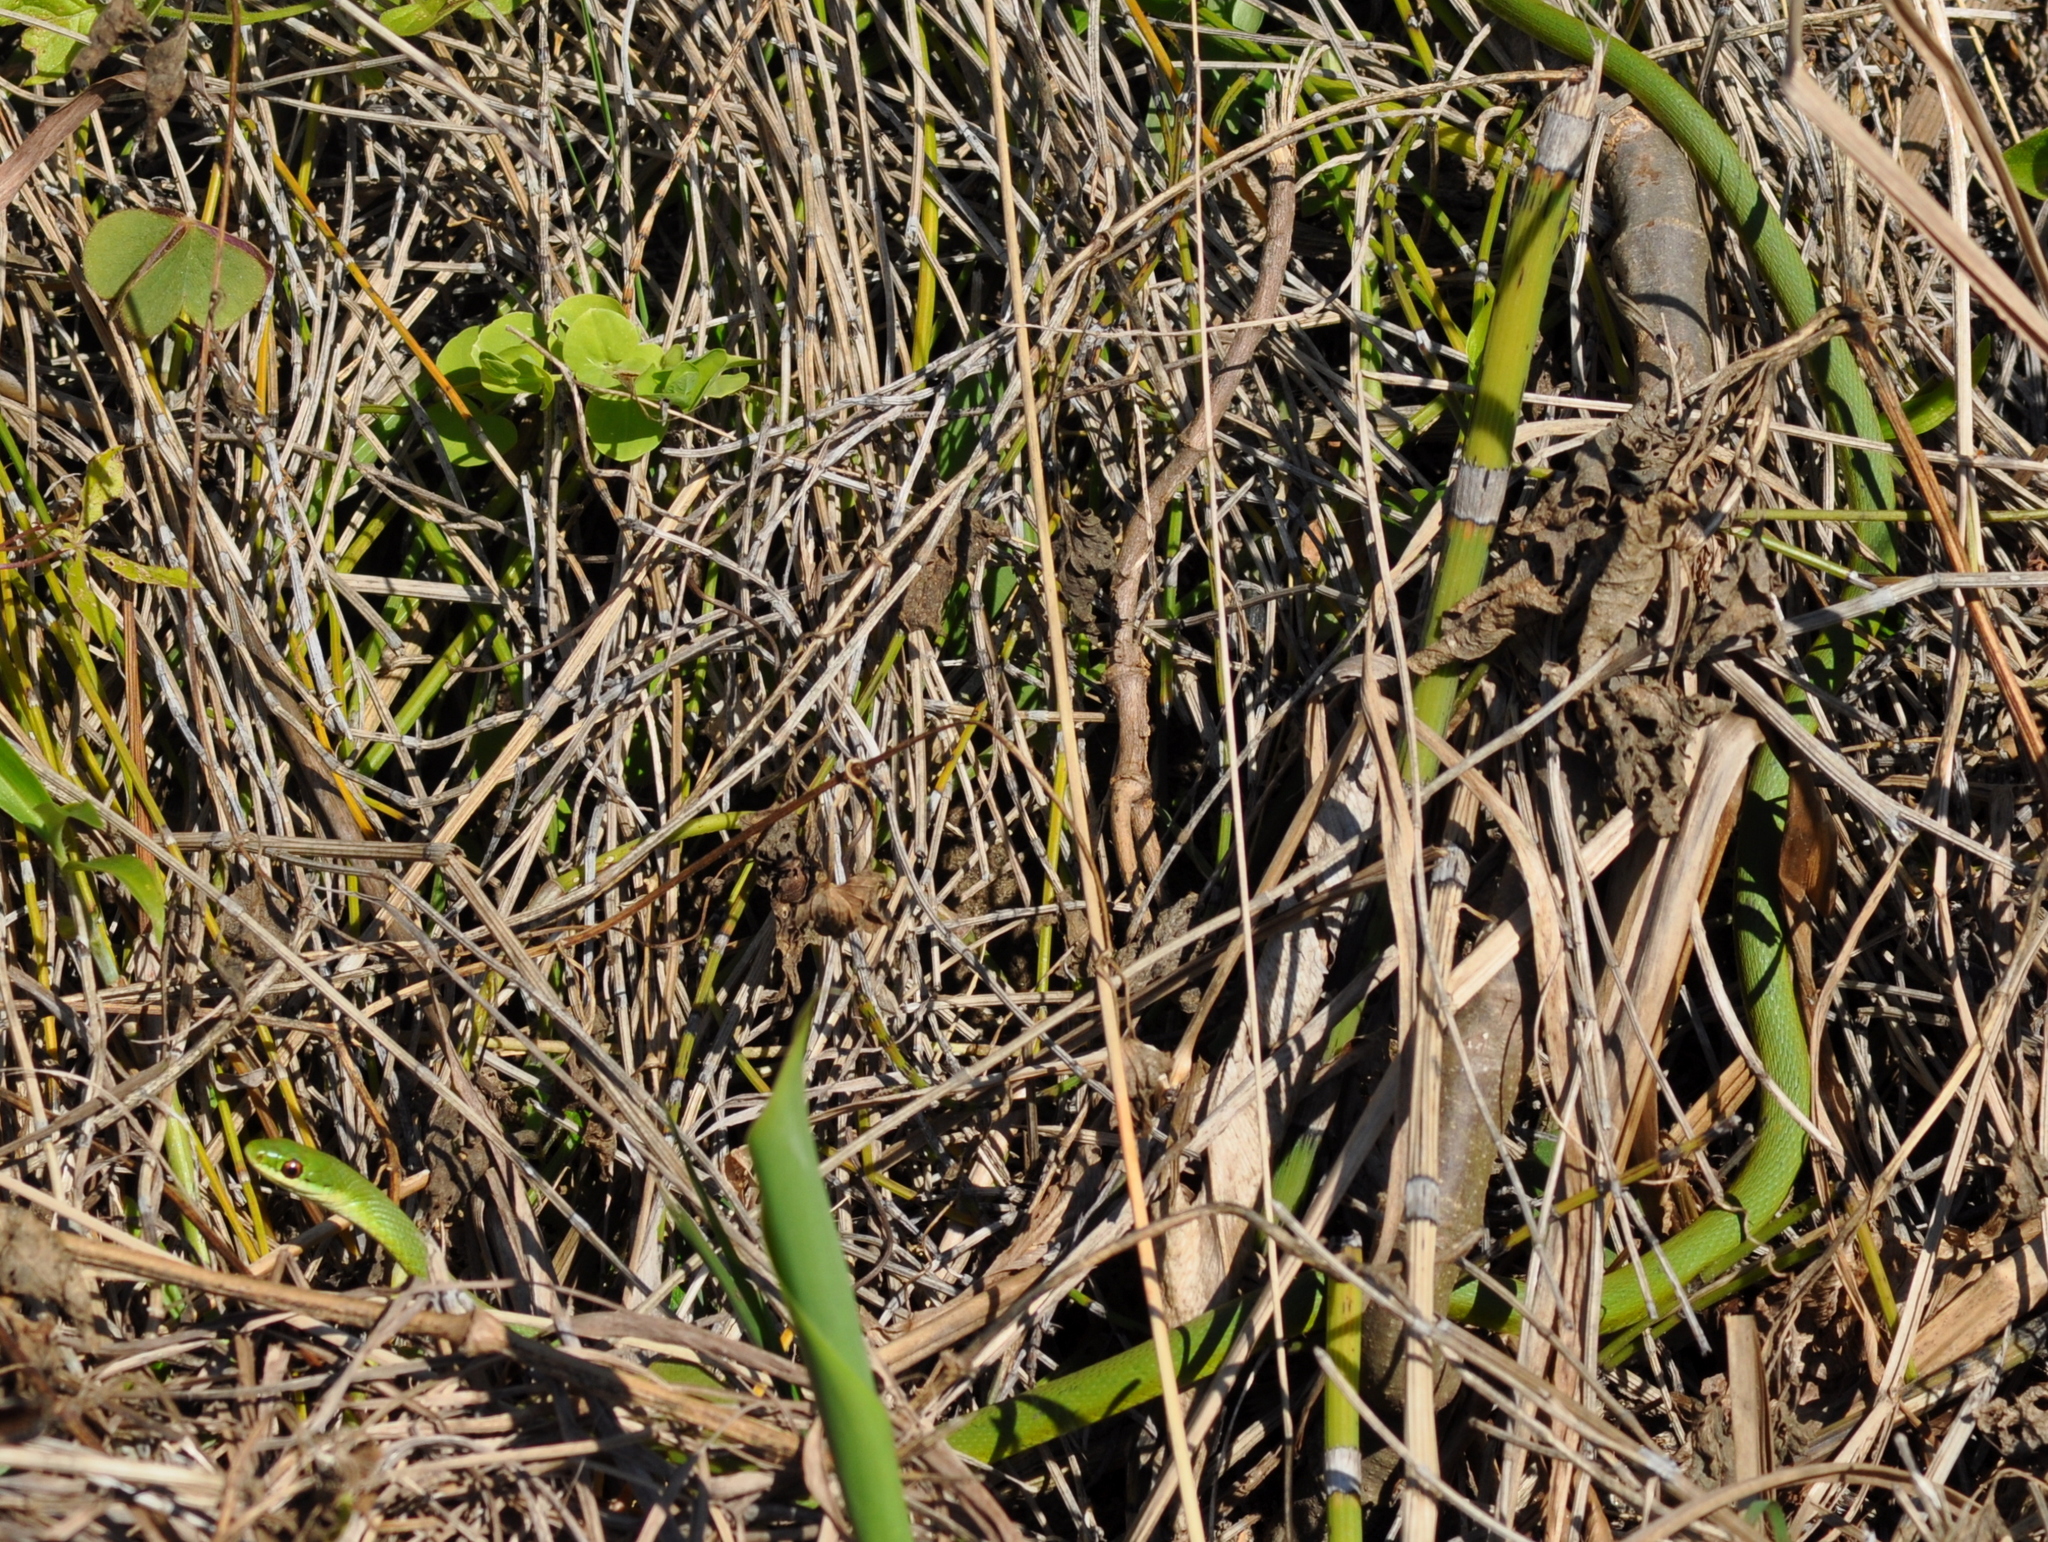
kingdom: Animalia
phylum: Chordata
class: Squamata
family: Colubridae
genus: Philodryas
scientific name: Philodryas aestiva
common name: Brazilian green racer
